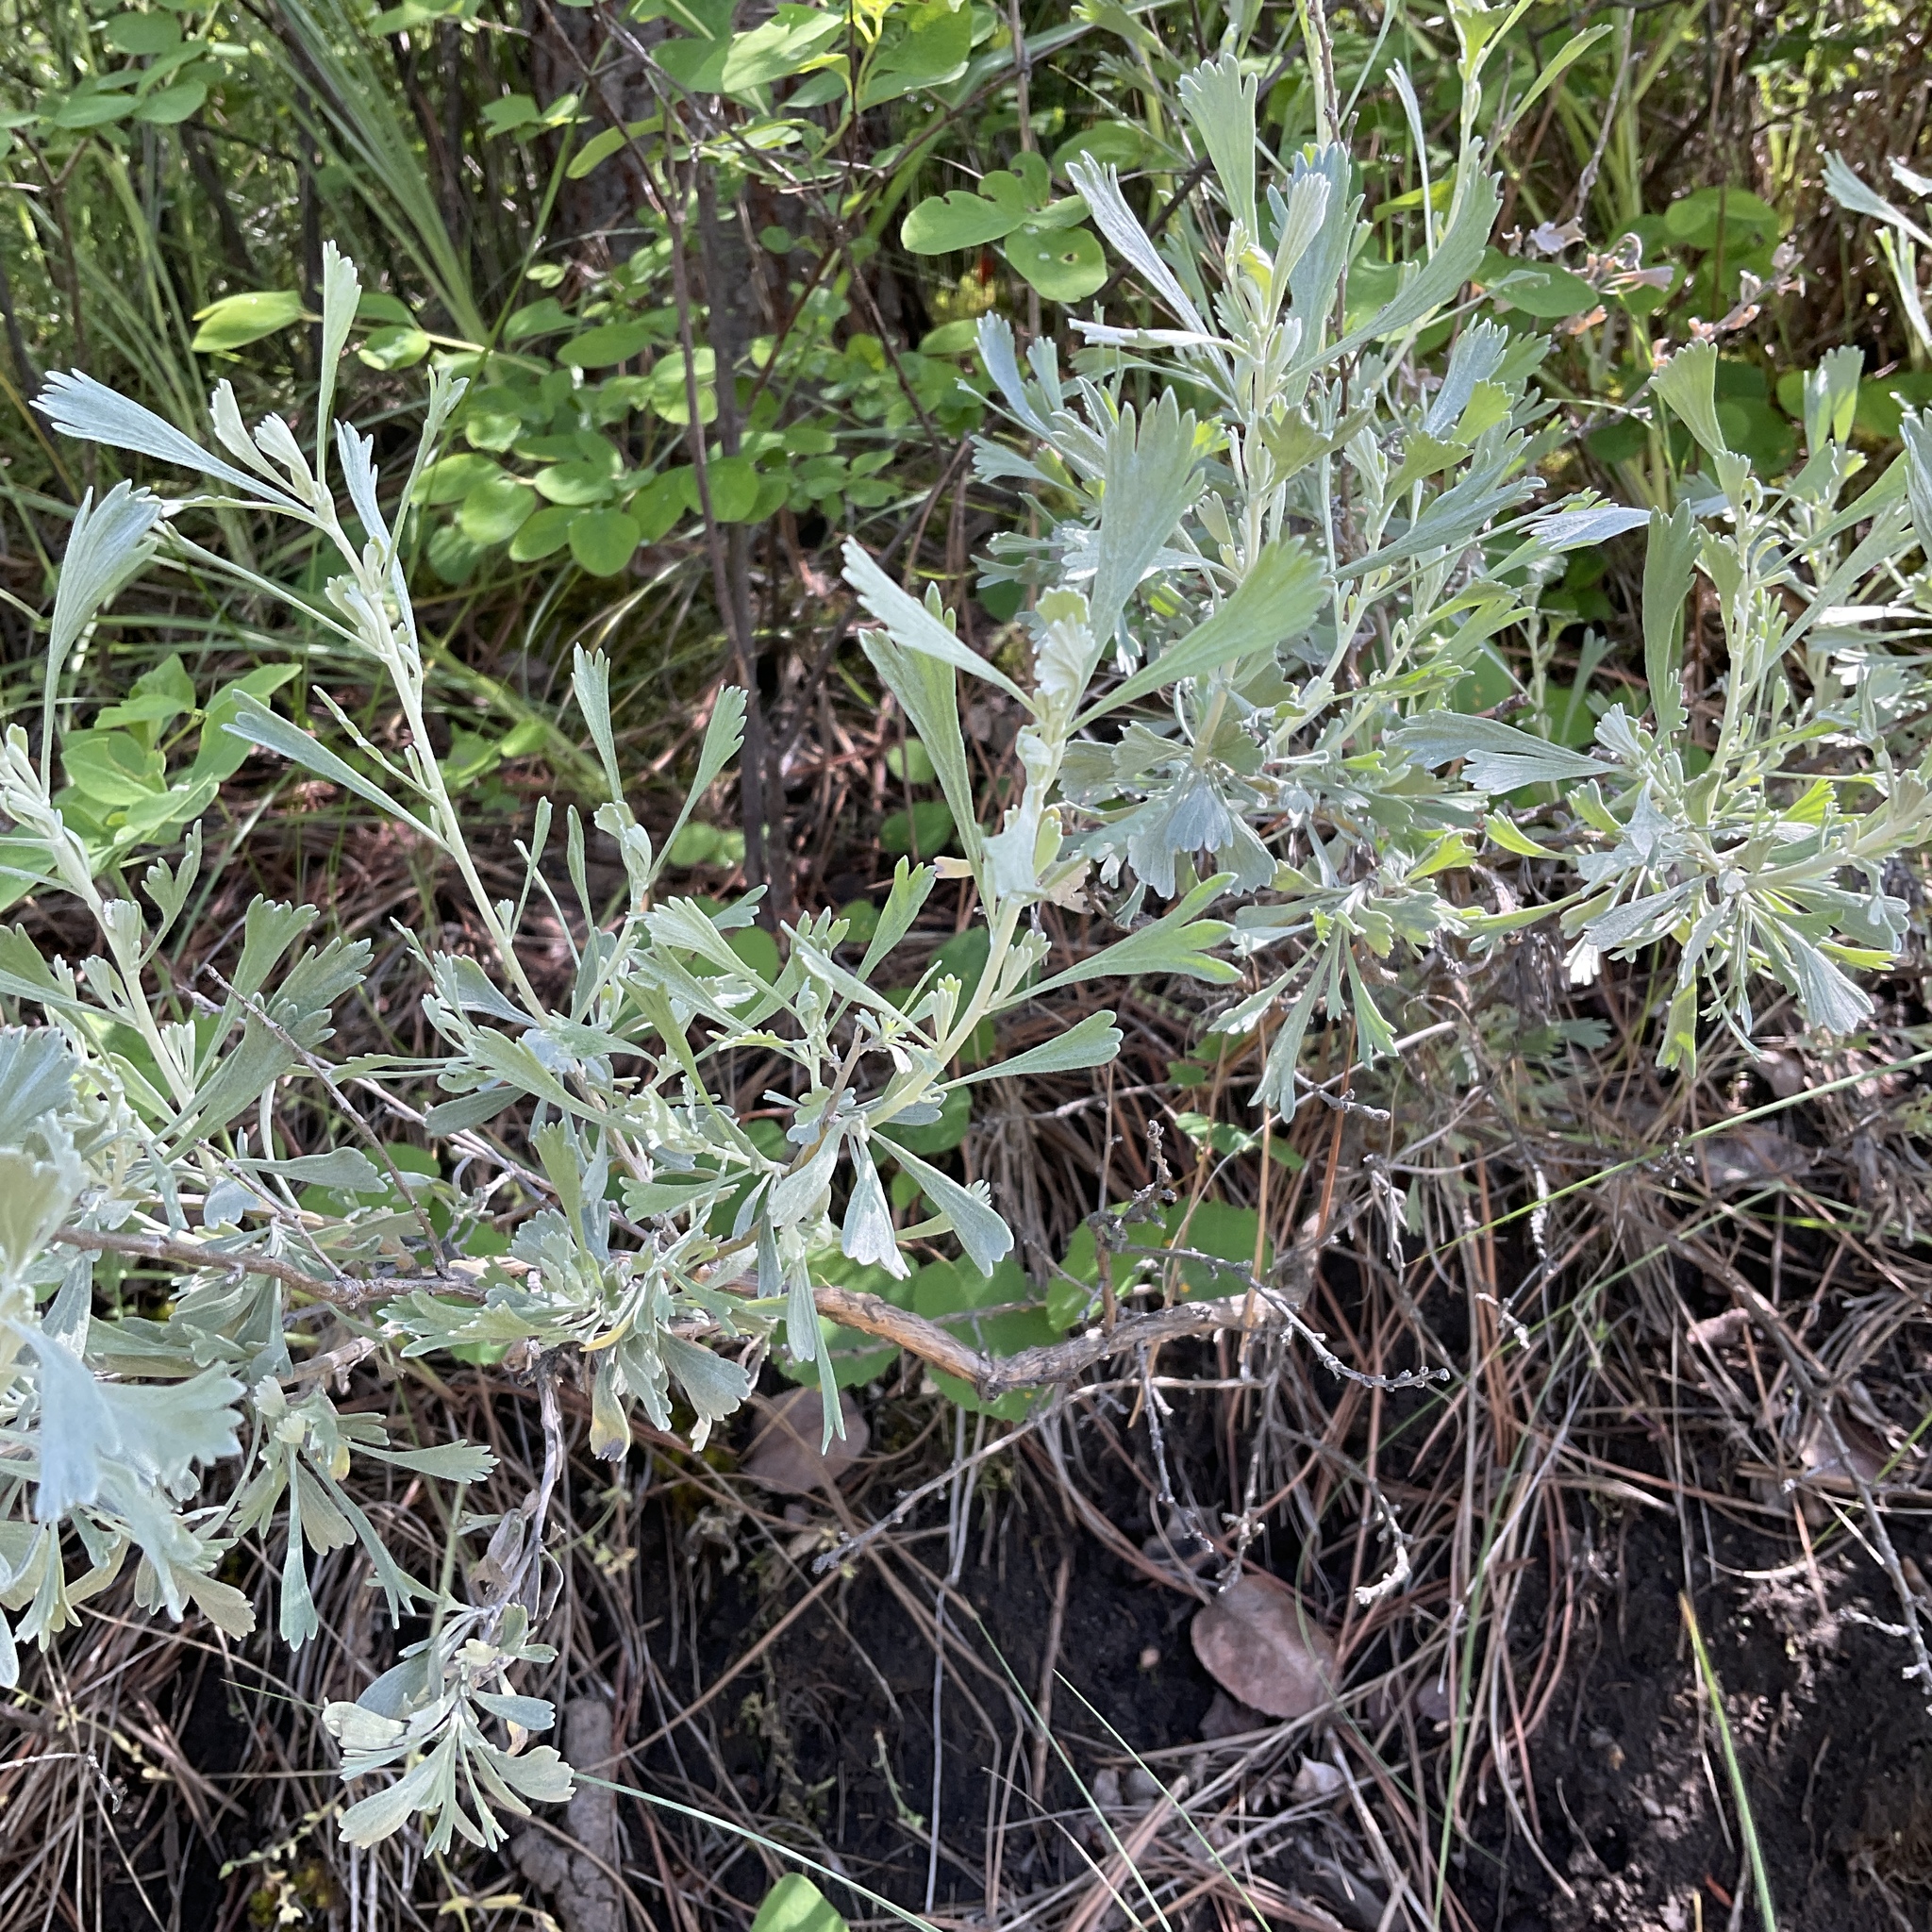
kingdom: Plantae
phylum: Tracheophyta
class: Magnoliopsida
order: Asterales
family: Asteraceae
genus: Artemisia
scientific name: Artemisia tridentata
